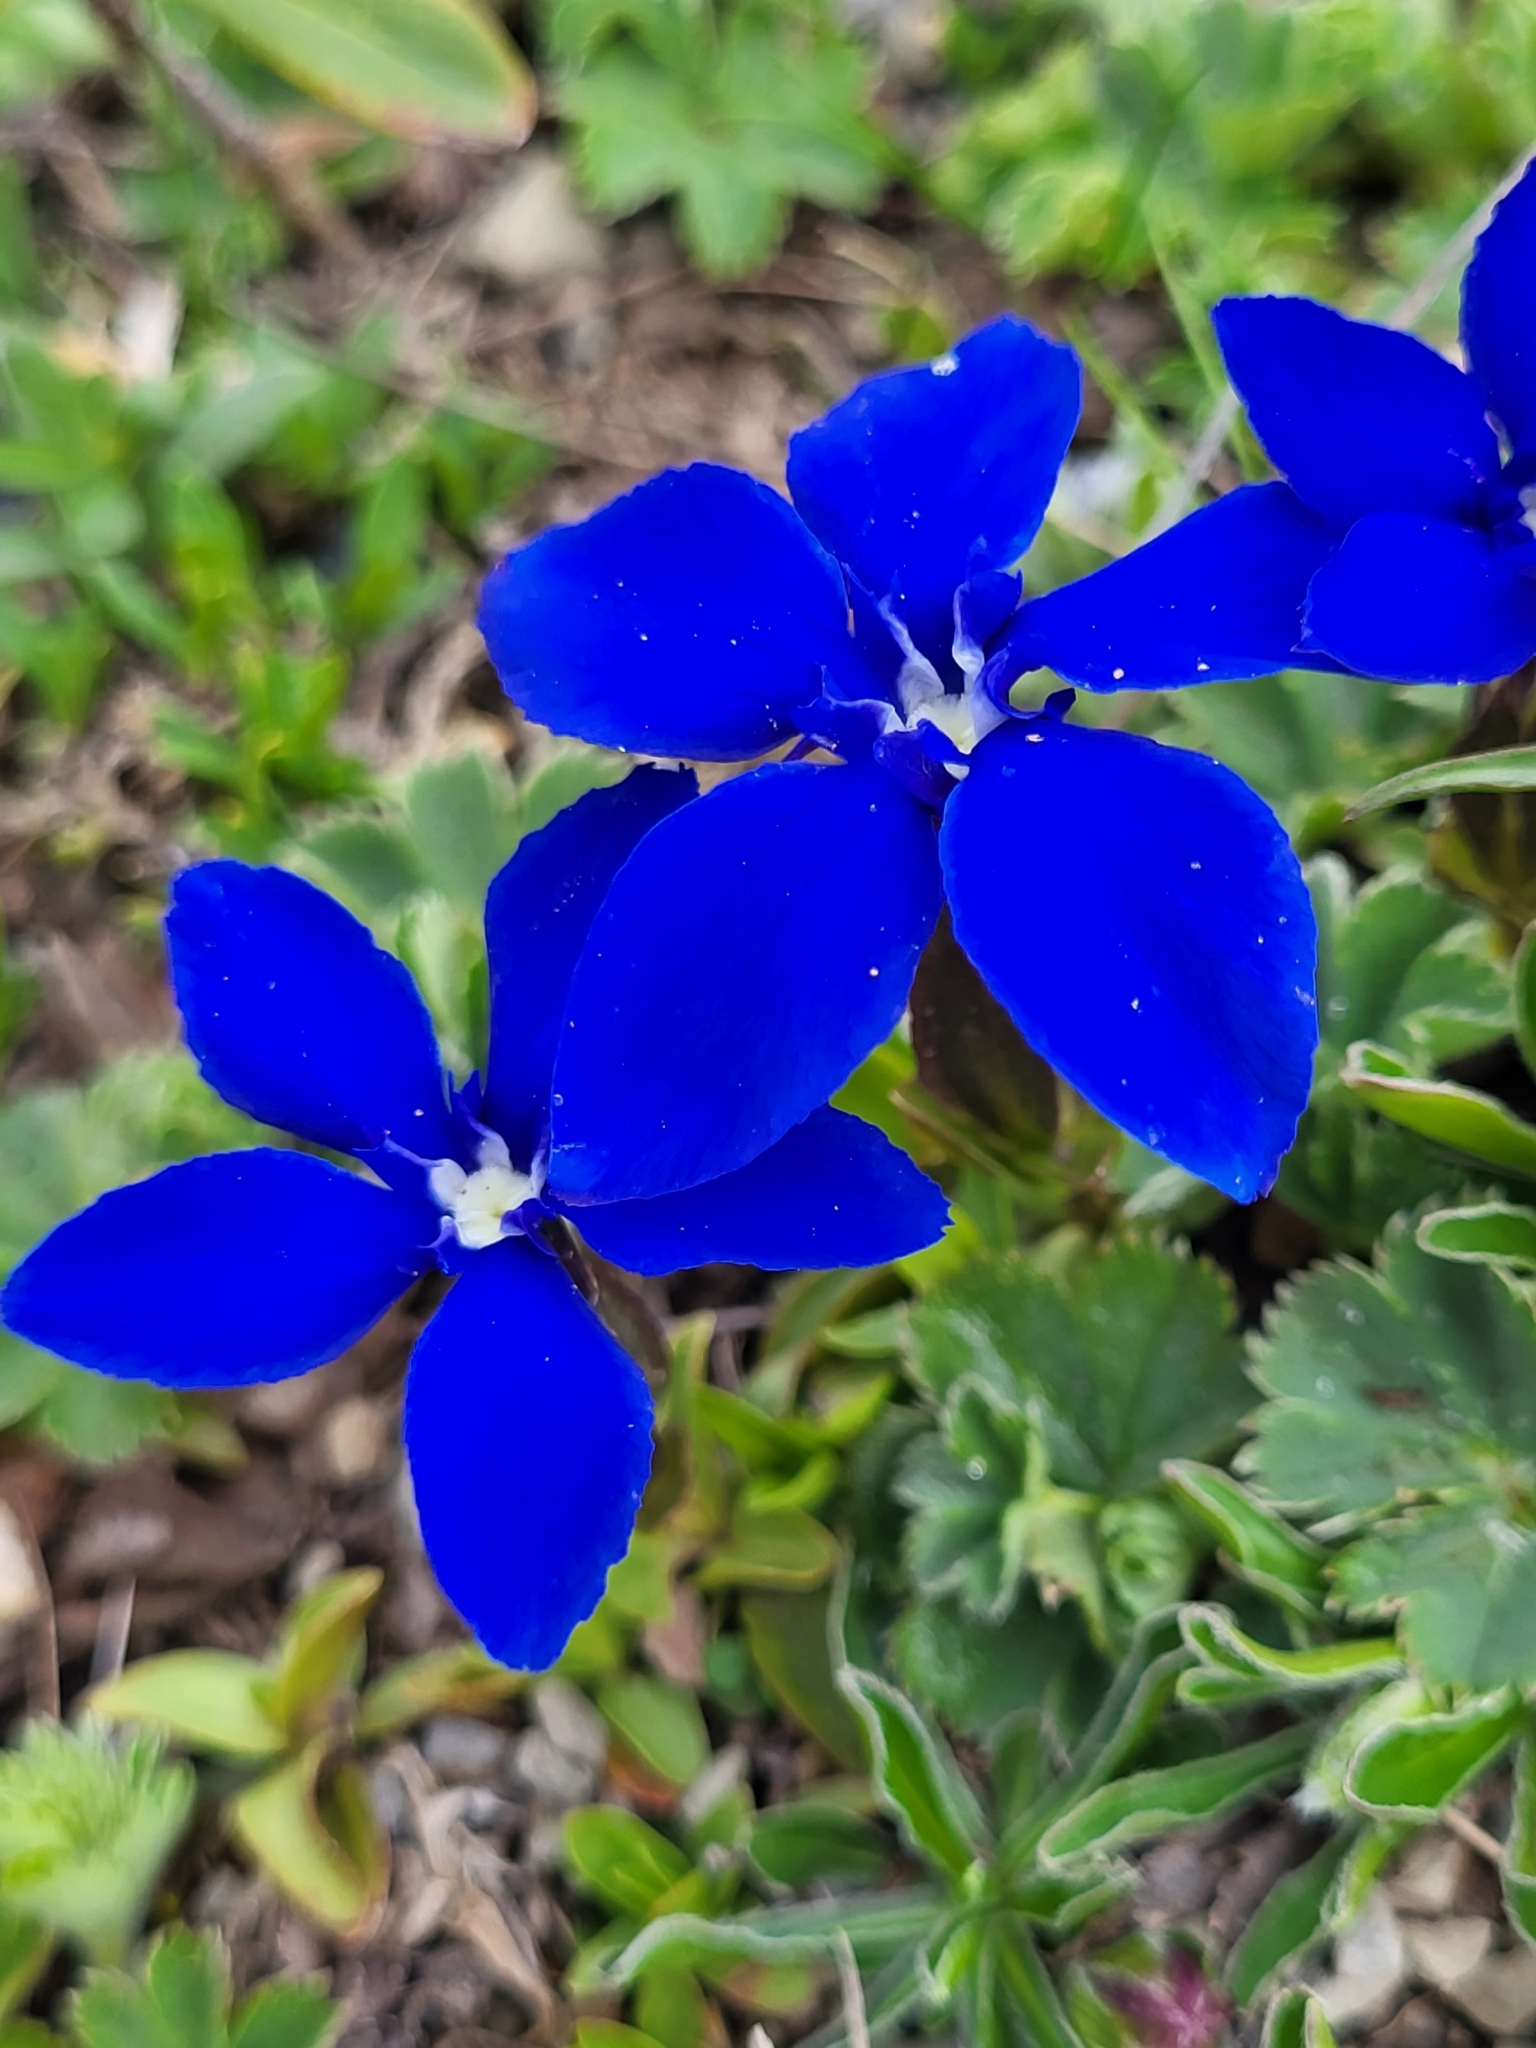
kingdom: Plantae
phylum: Tracheophyta
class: Magnoliopsida
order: Gentianales
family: Gentianaceae
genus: Gentiana
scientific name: Gentiana verna
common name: Spring gentian
